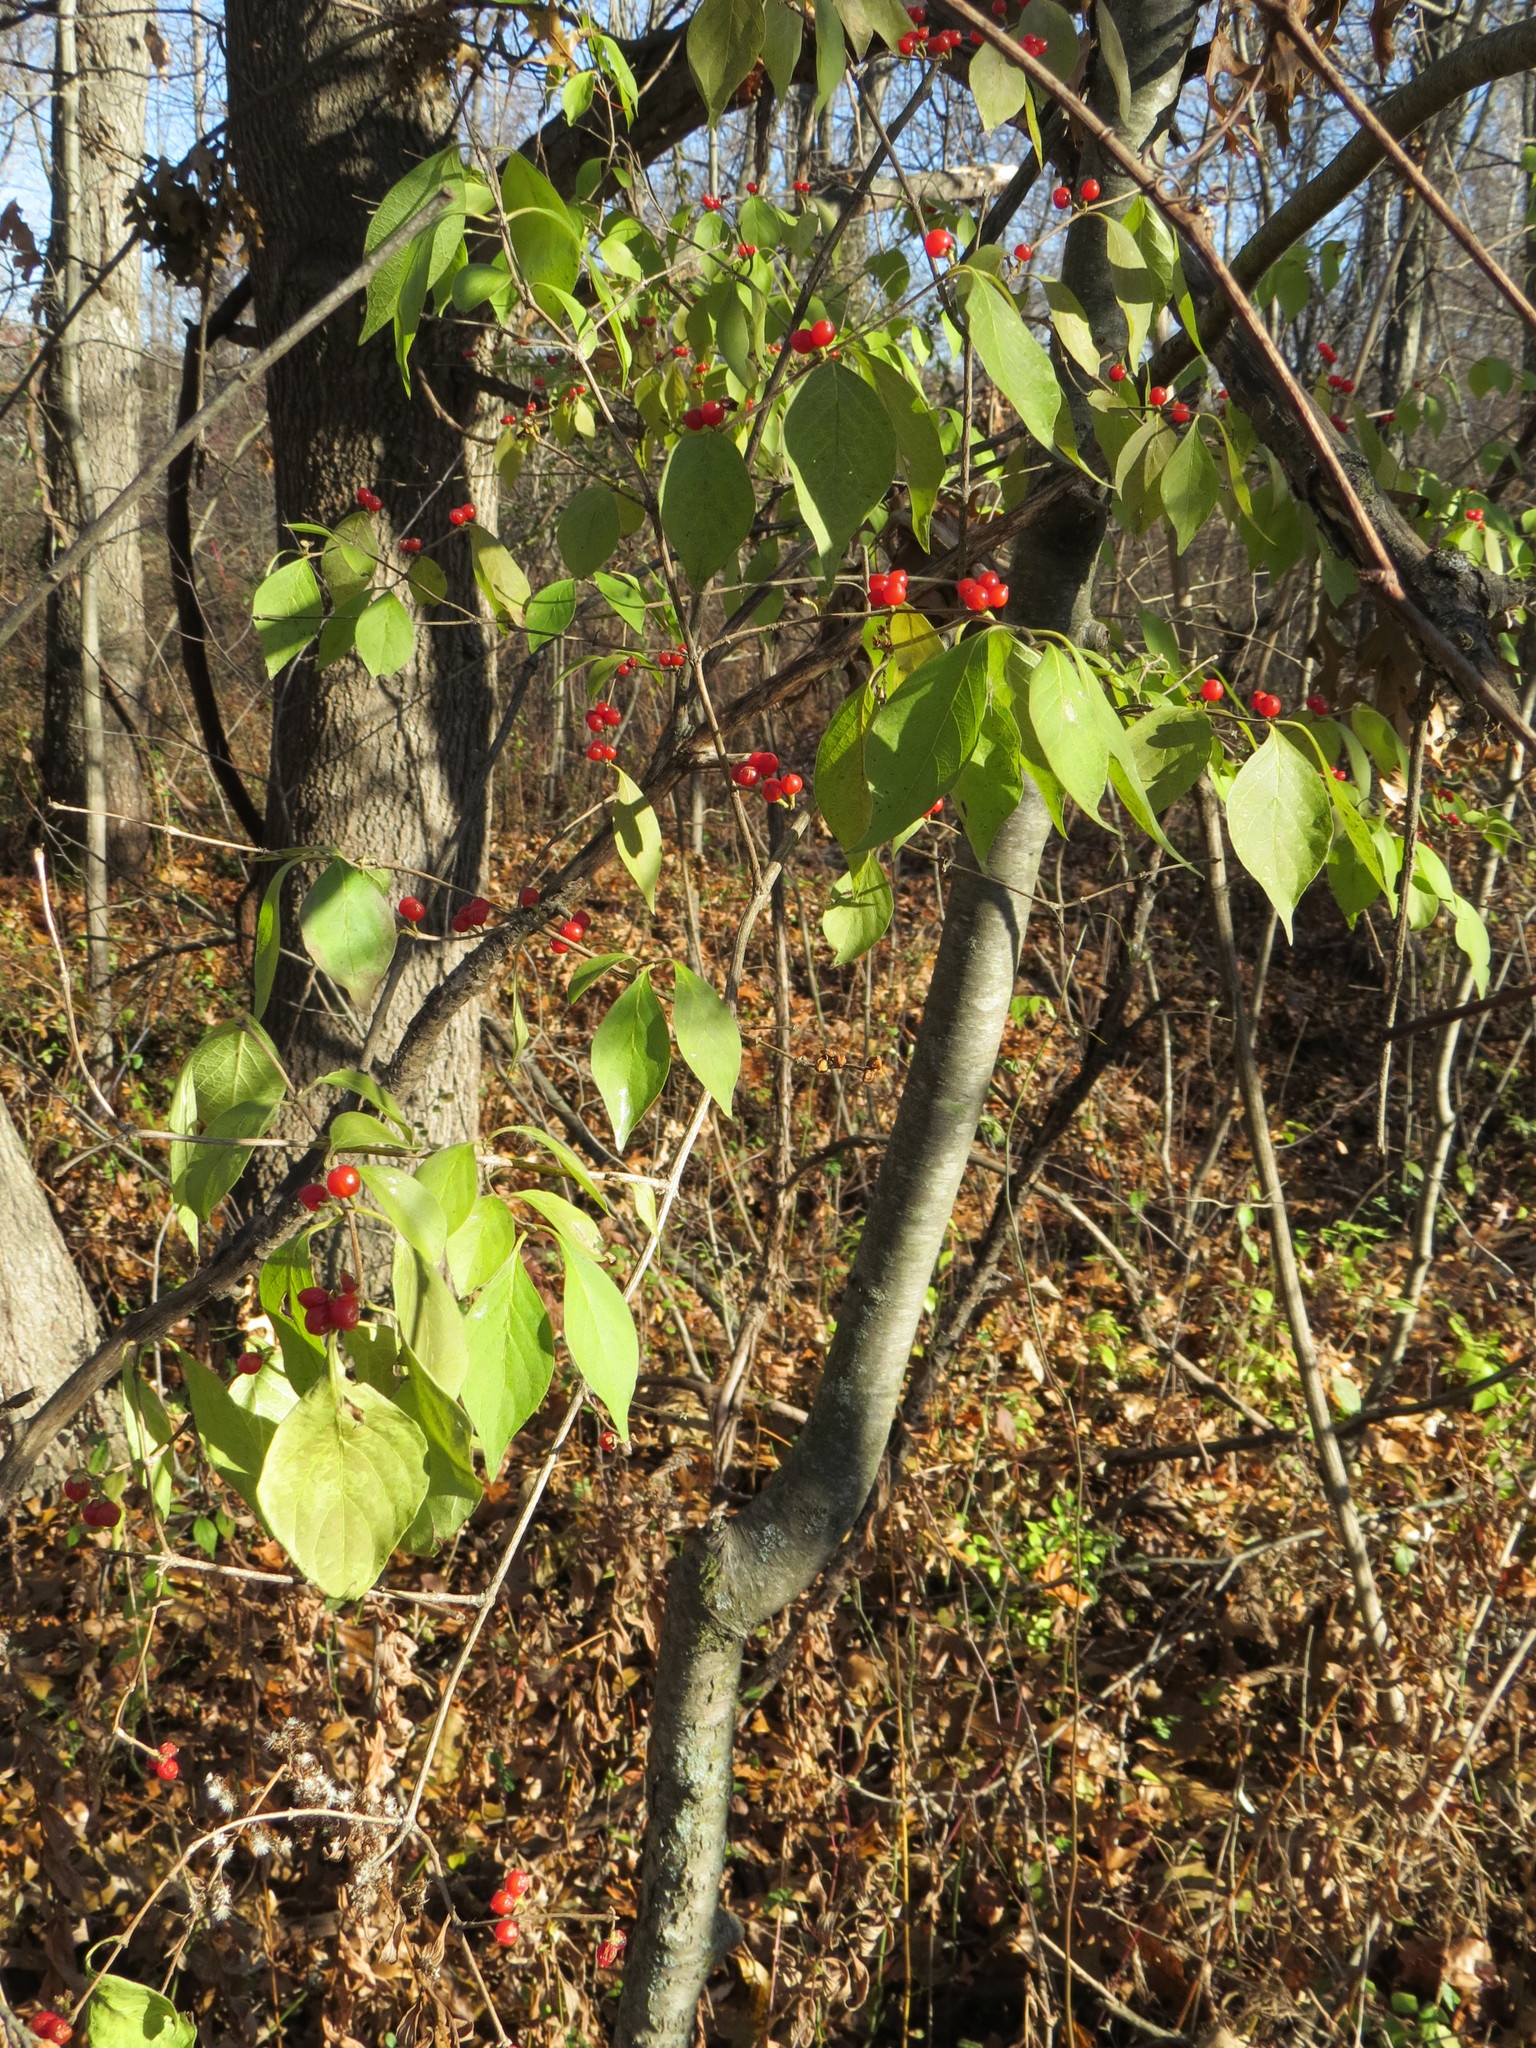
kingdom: Plantae
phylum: Tracheophyta
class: Magnoliopsida
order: Dipsacales
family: Caprifoliaceae
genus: Lonicera
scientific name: Lonicera maackii
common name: Amur honeysuckle
